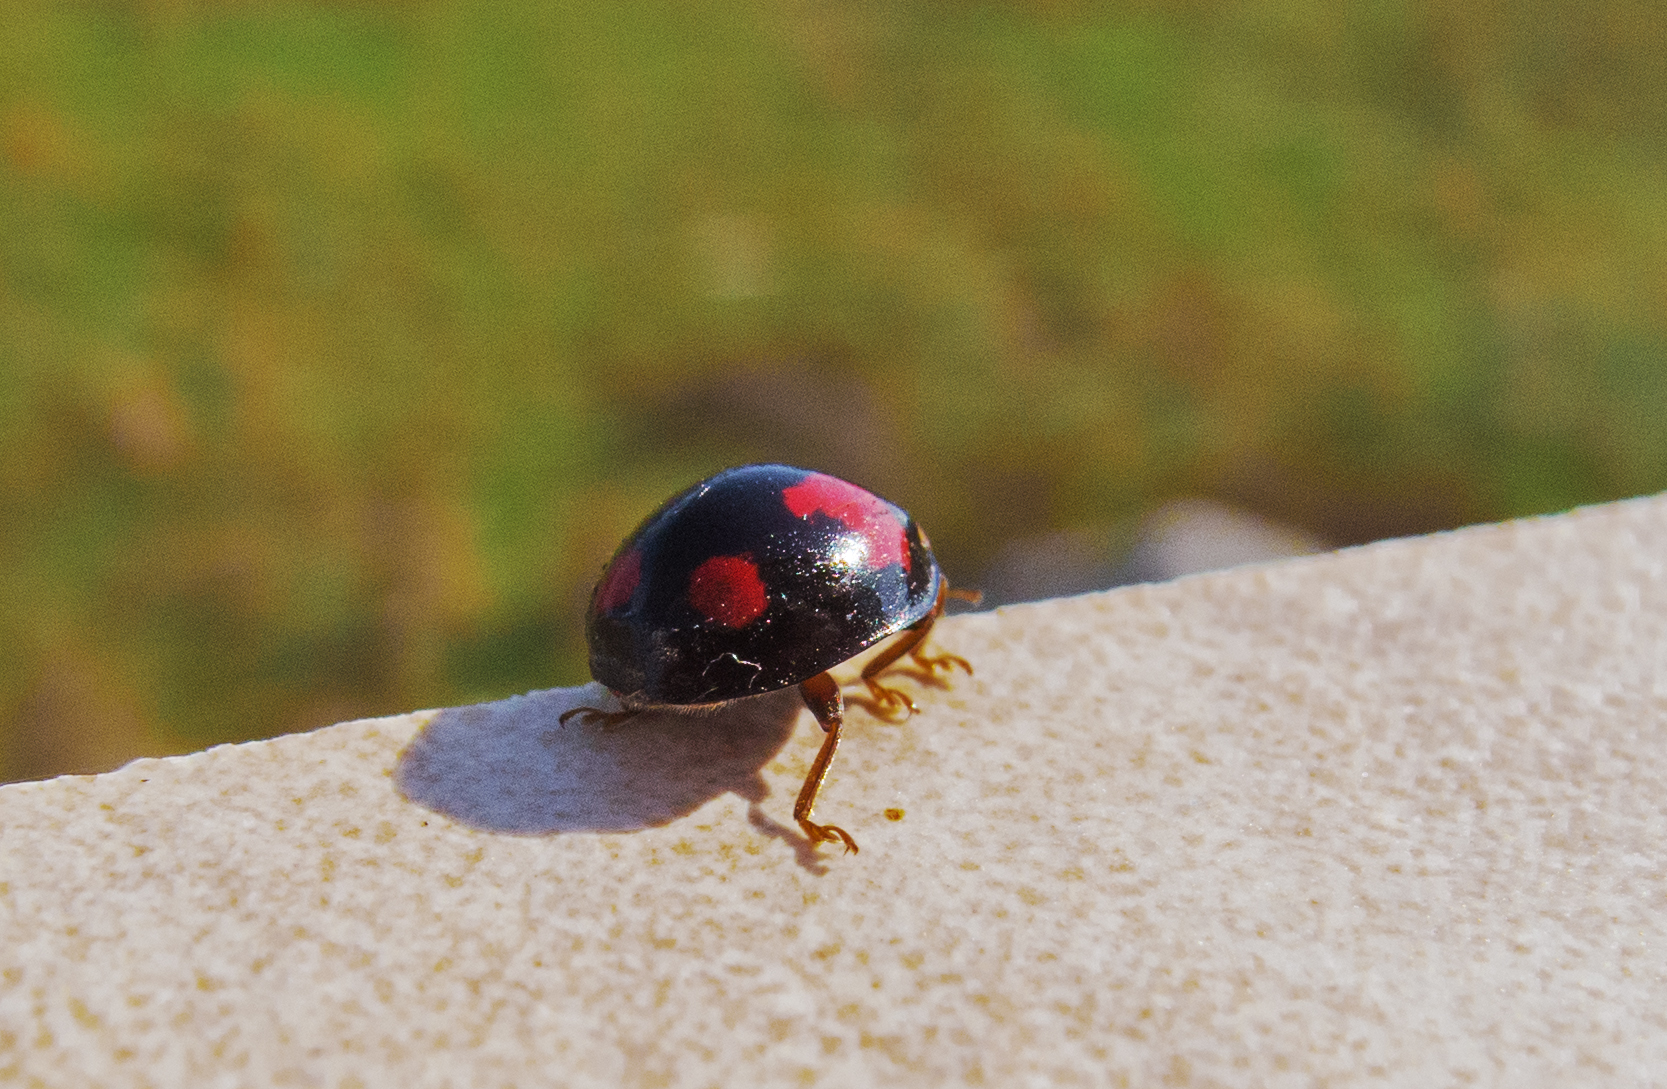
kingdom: Animalia
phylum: Arthropoda
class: Insecta
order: Coleoptera
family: Coccinellidae
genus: Harmonia
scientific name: Harmonia axyridis
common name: Harlequin ladybird
